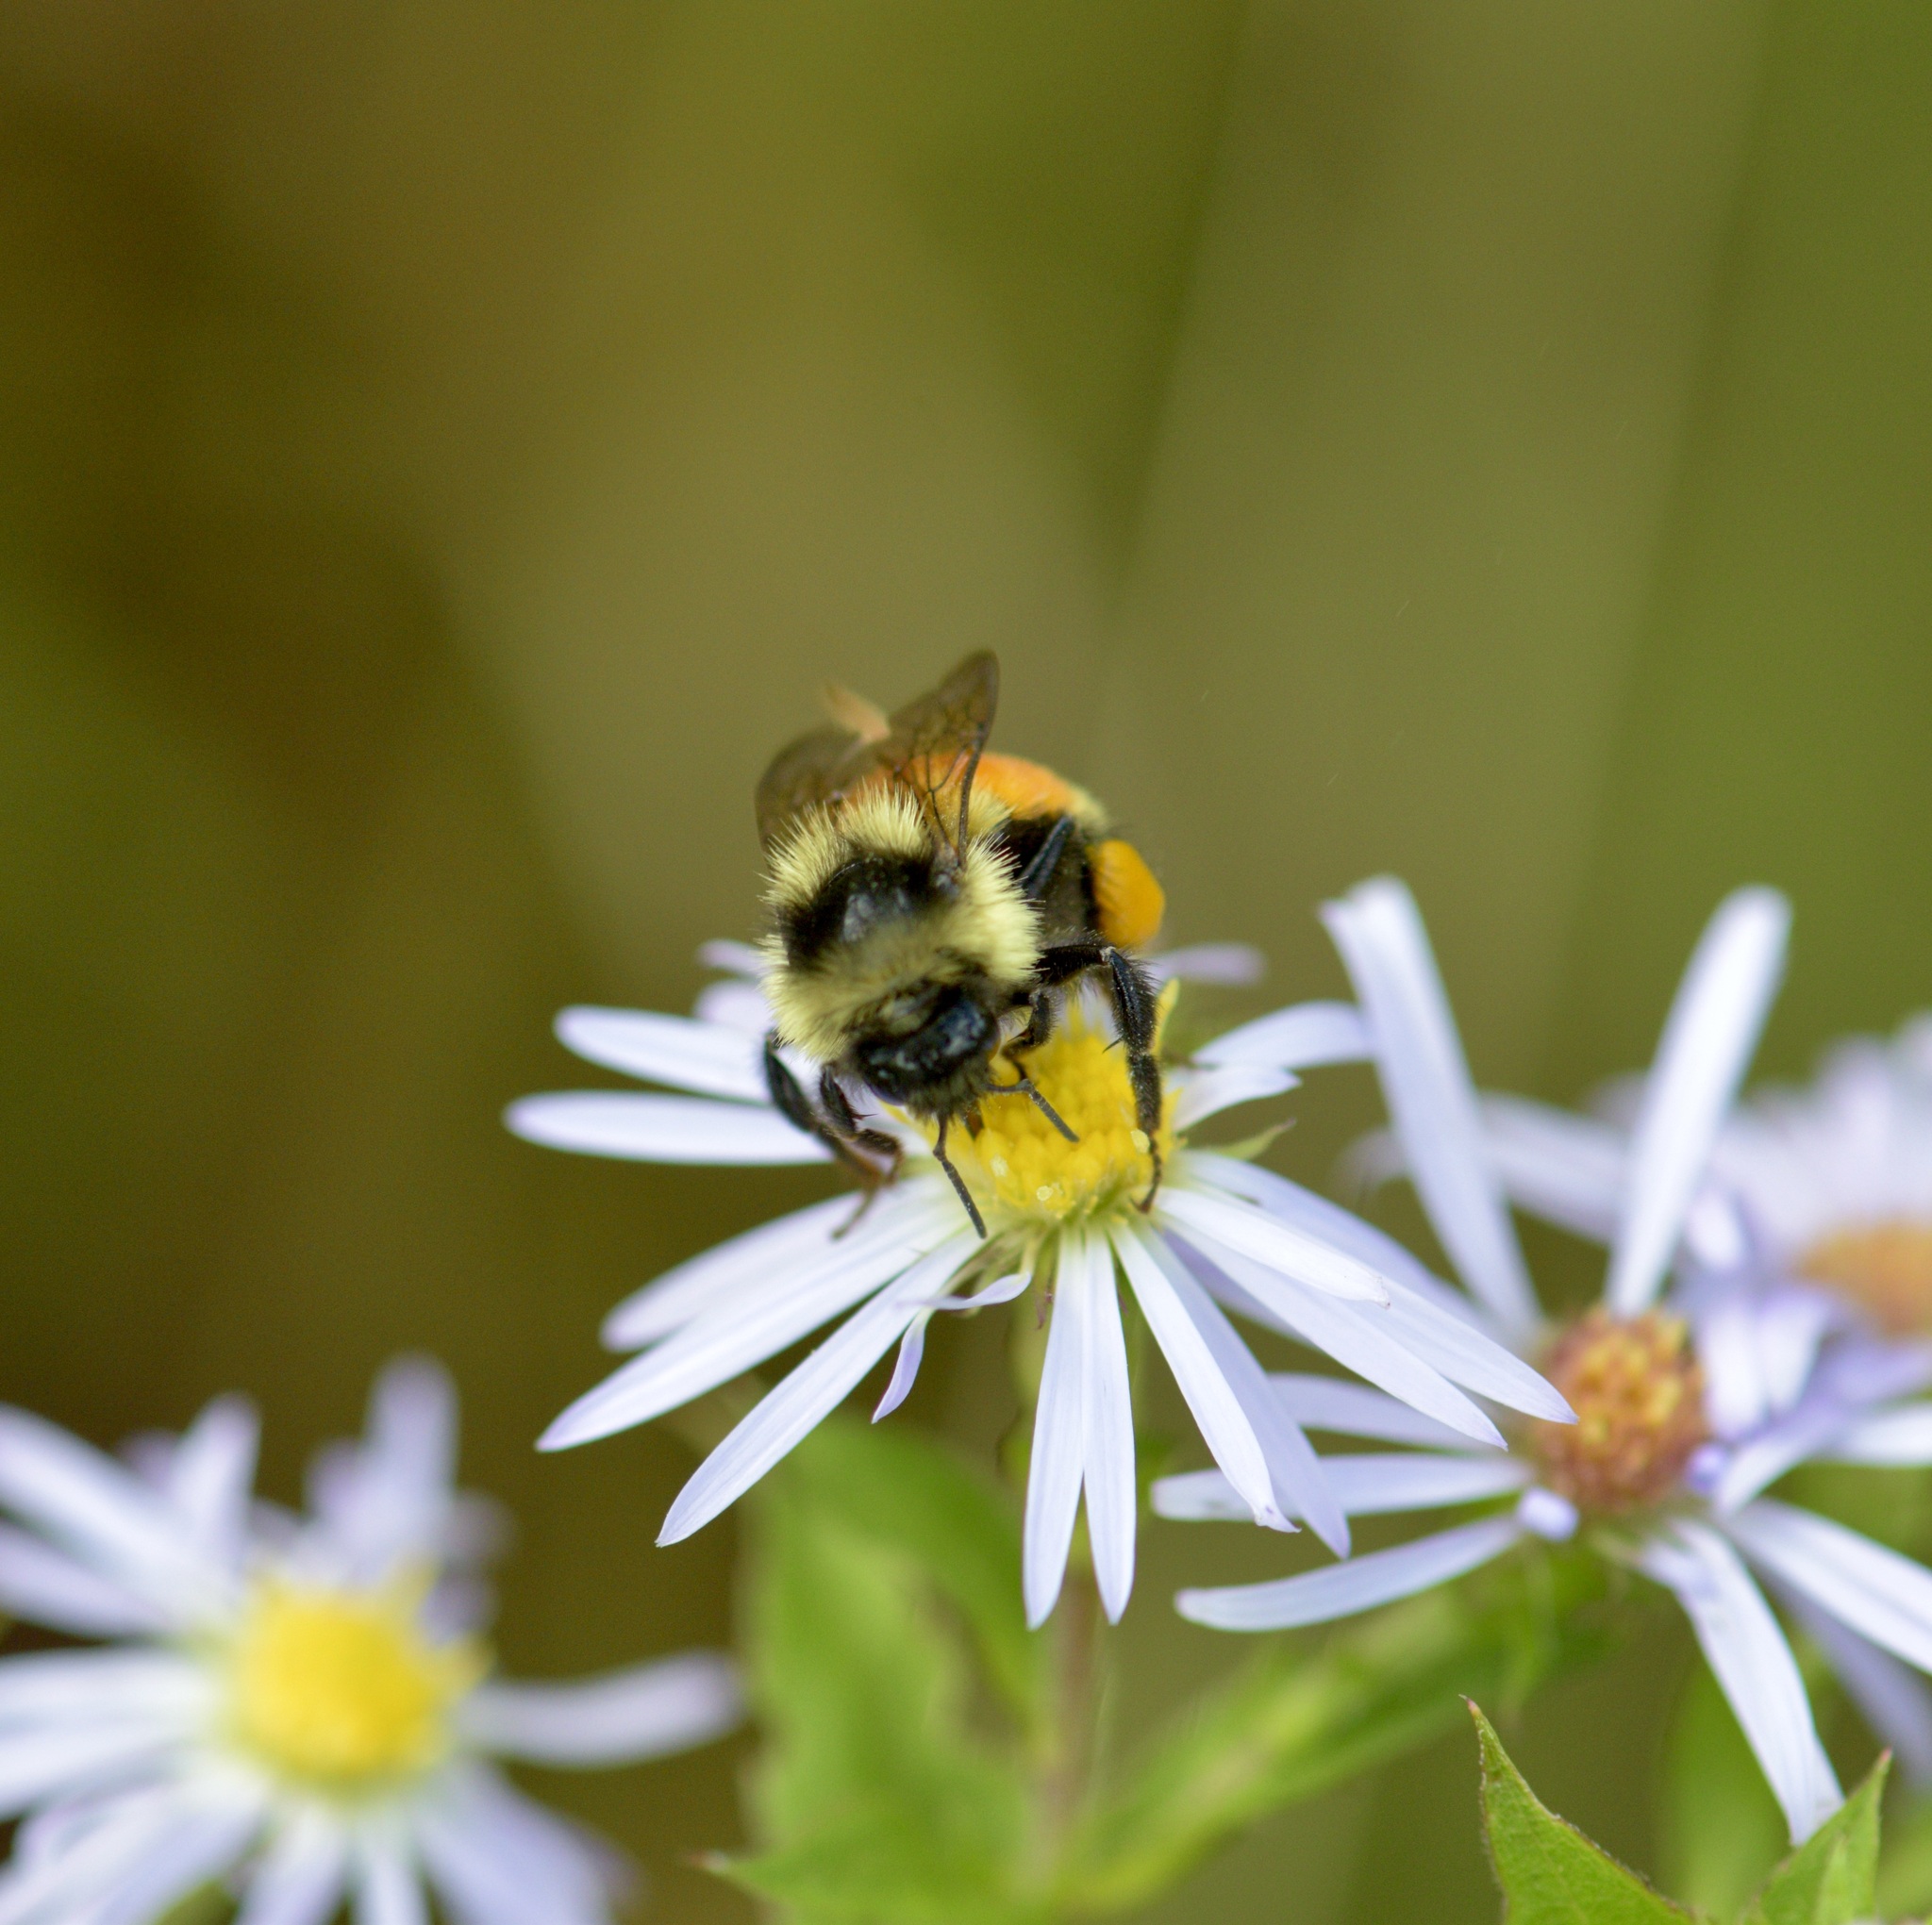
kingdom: Animalia
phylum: Arthropoda
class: Insecta
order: Hymenoptera
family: Apidae
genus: Bombus
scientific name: Bombus ternarius
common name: Tri-colored bumble bee
